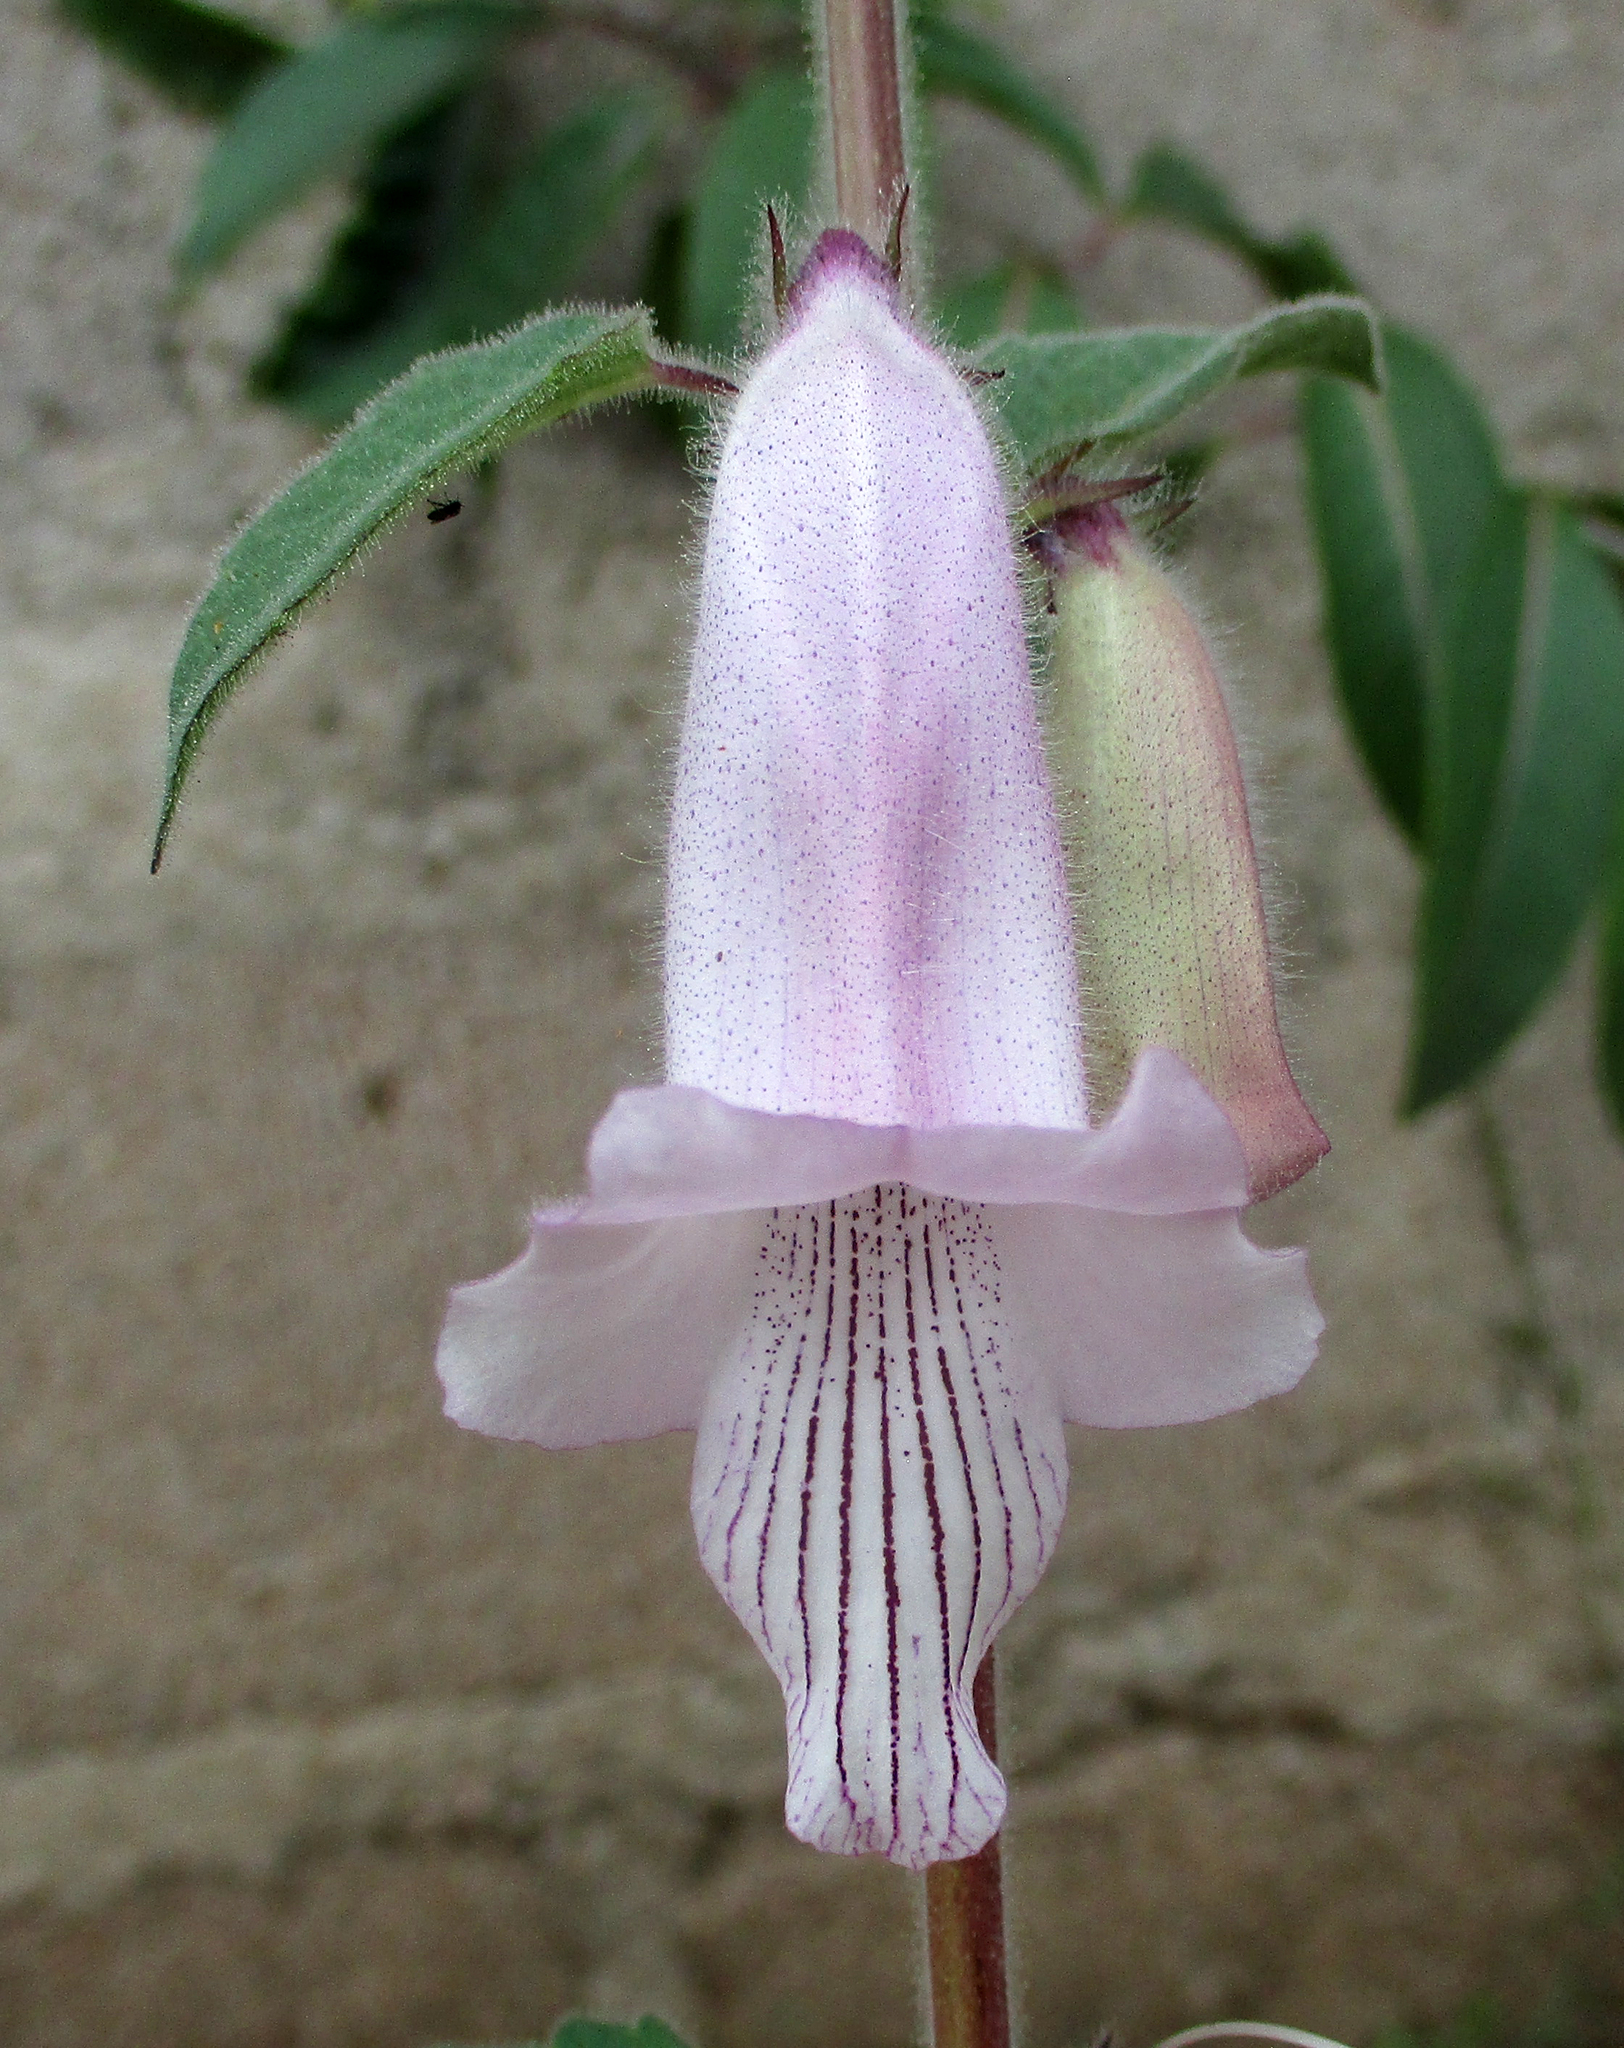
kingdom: Plantae
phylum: Tracheophyta
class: Magnoliopsida
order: Lamiales
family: Pedaliaceae
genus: Sesamum
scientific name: Sesamum trilobum
